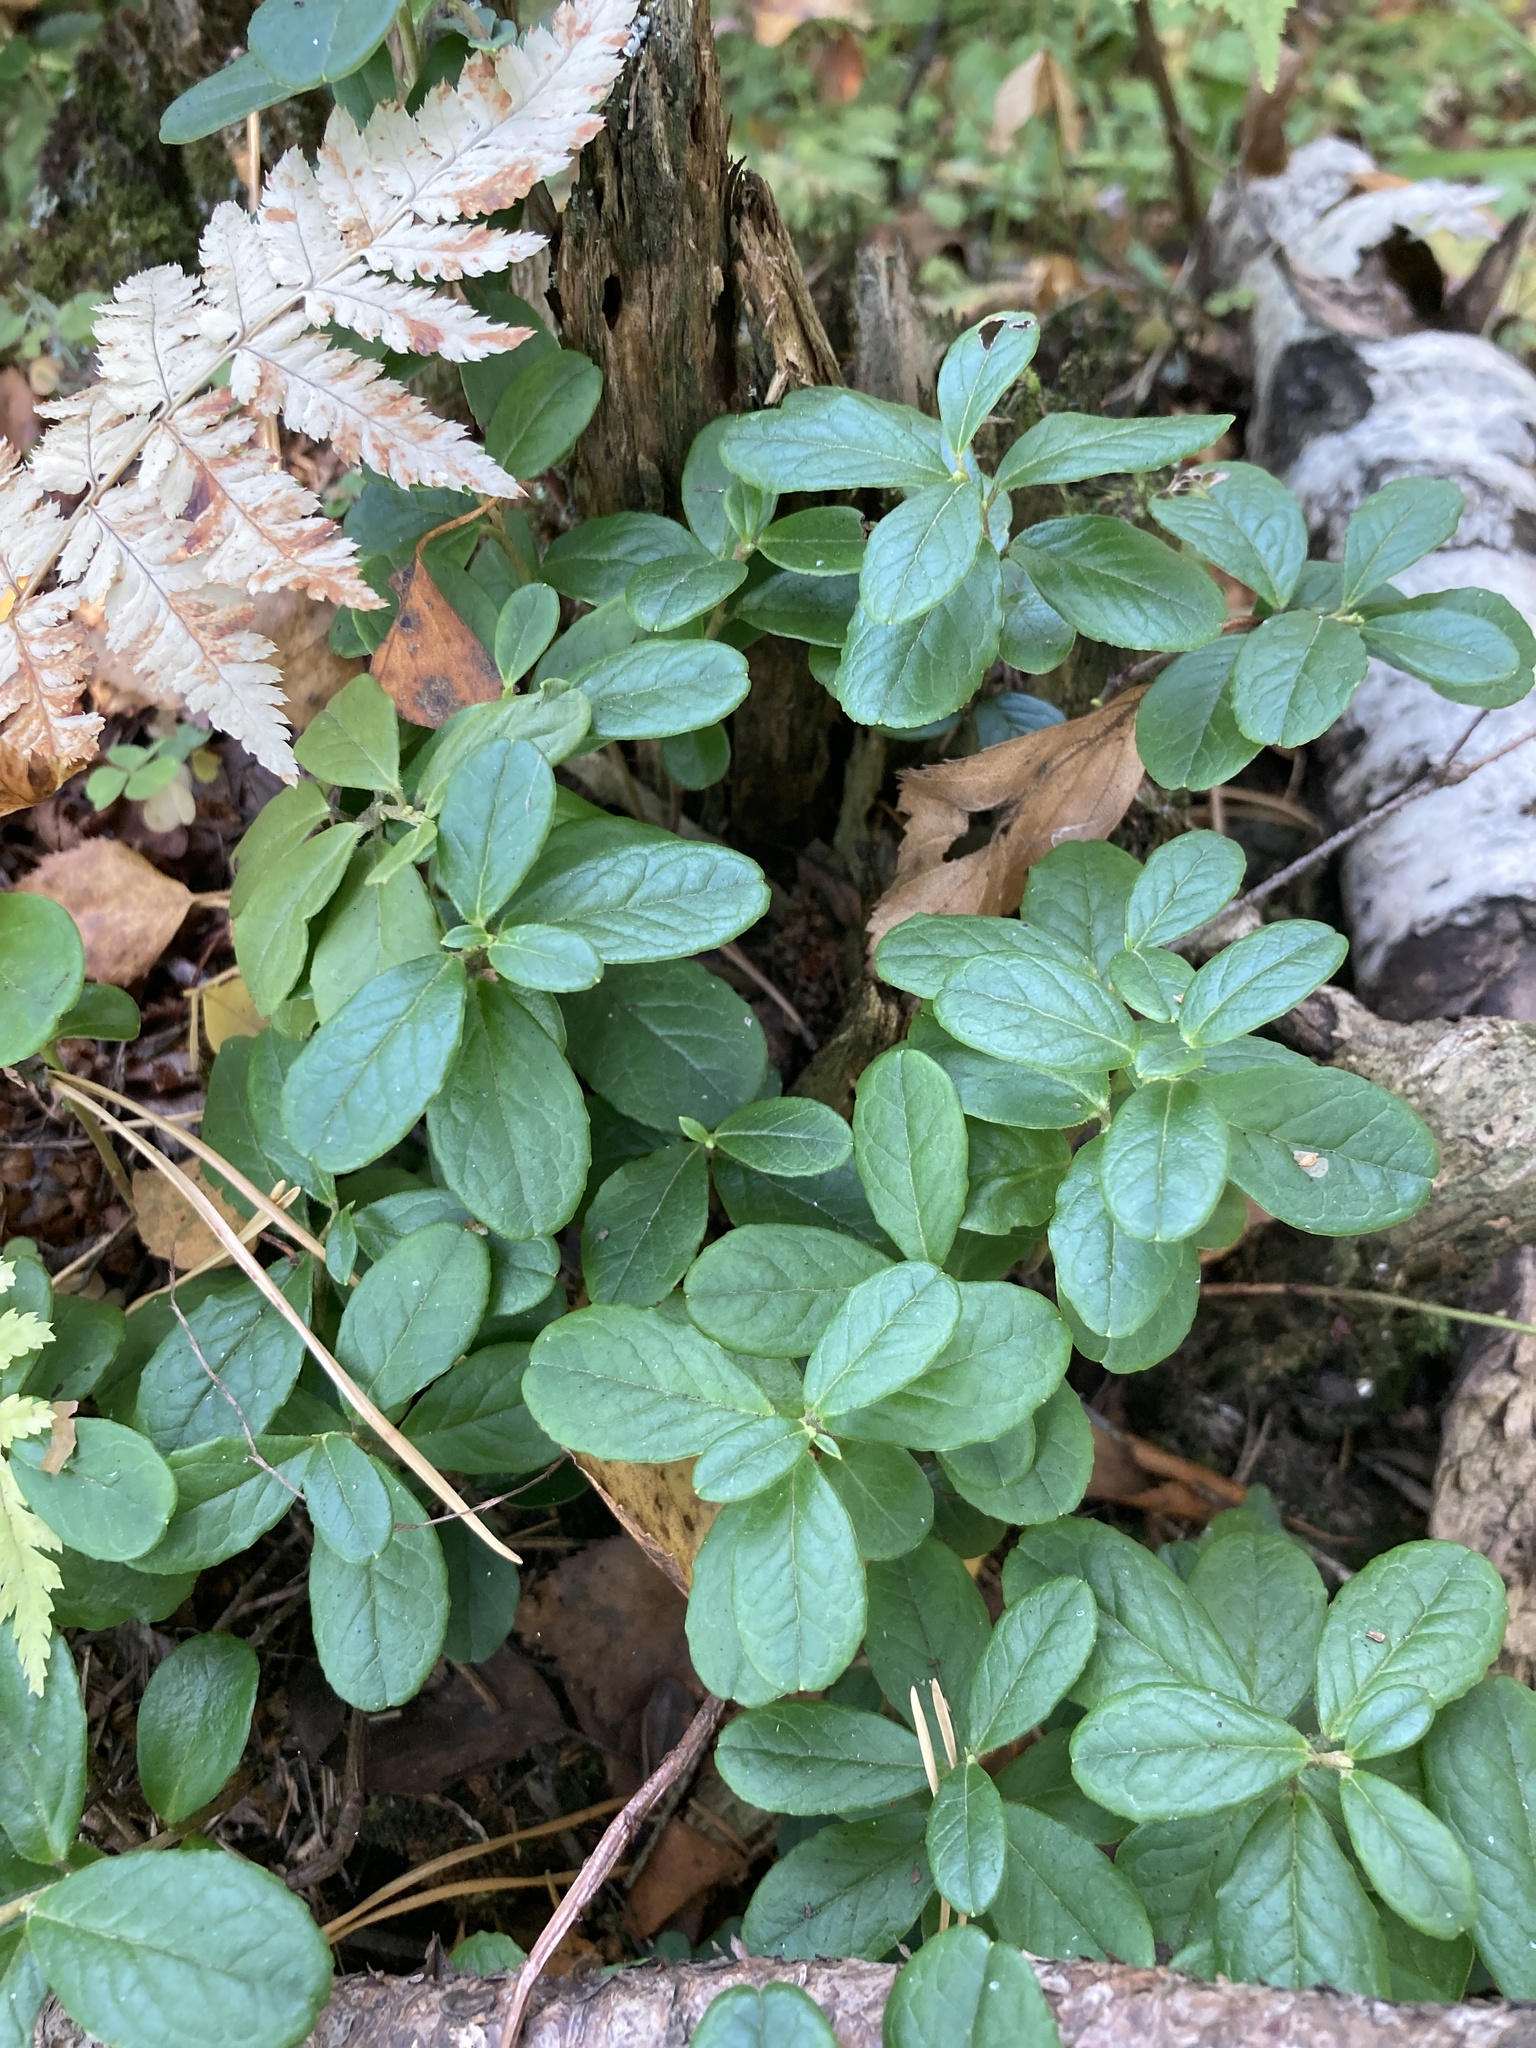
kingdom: Plantae
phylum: Tracheophyta
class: Magnoliopsida
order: Ericales
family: Ericaceae
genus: Vaccinium
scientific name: Vaccinium vitis-idaea
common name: Cowberry
